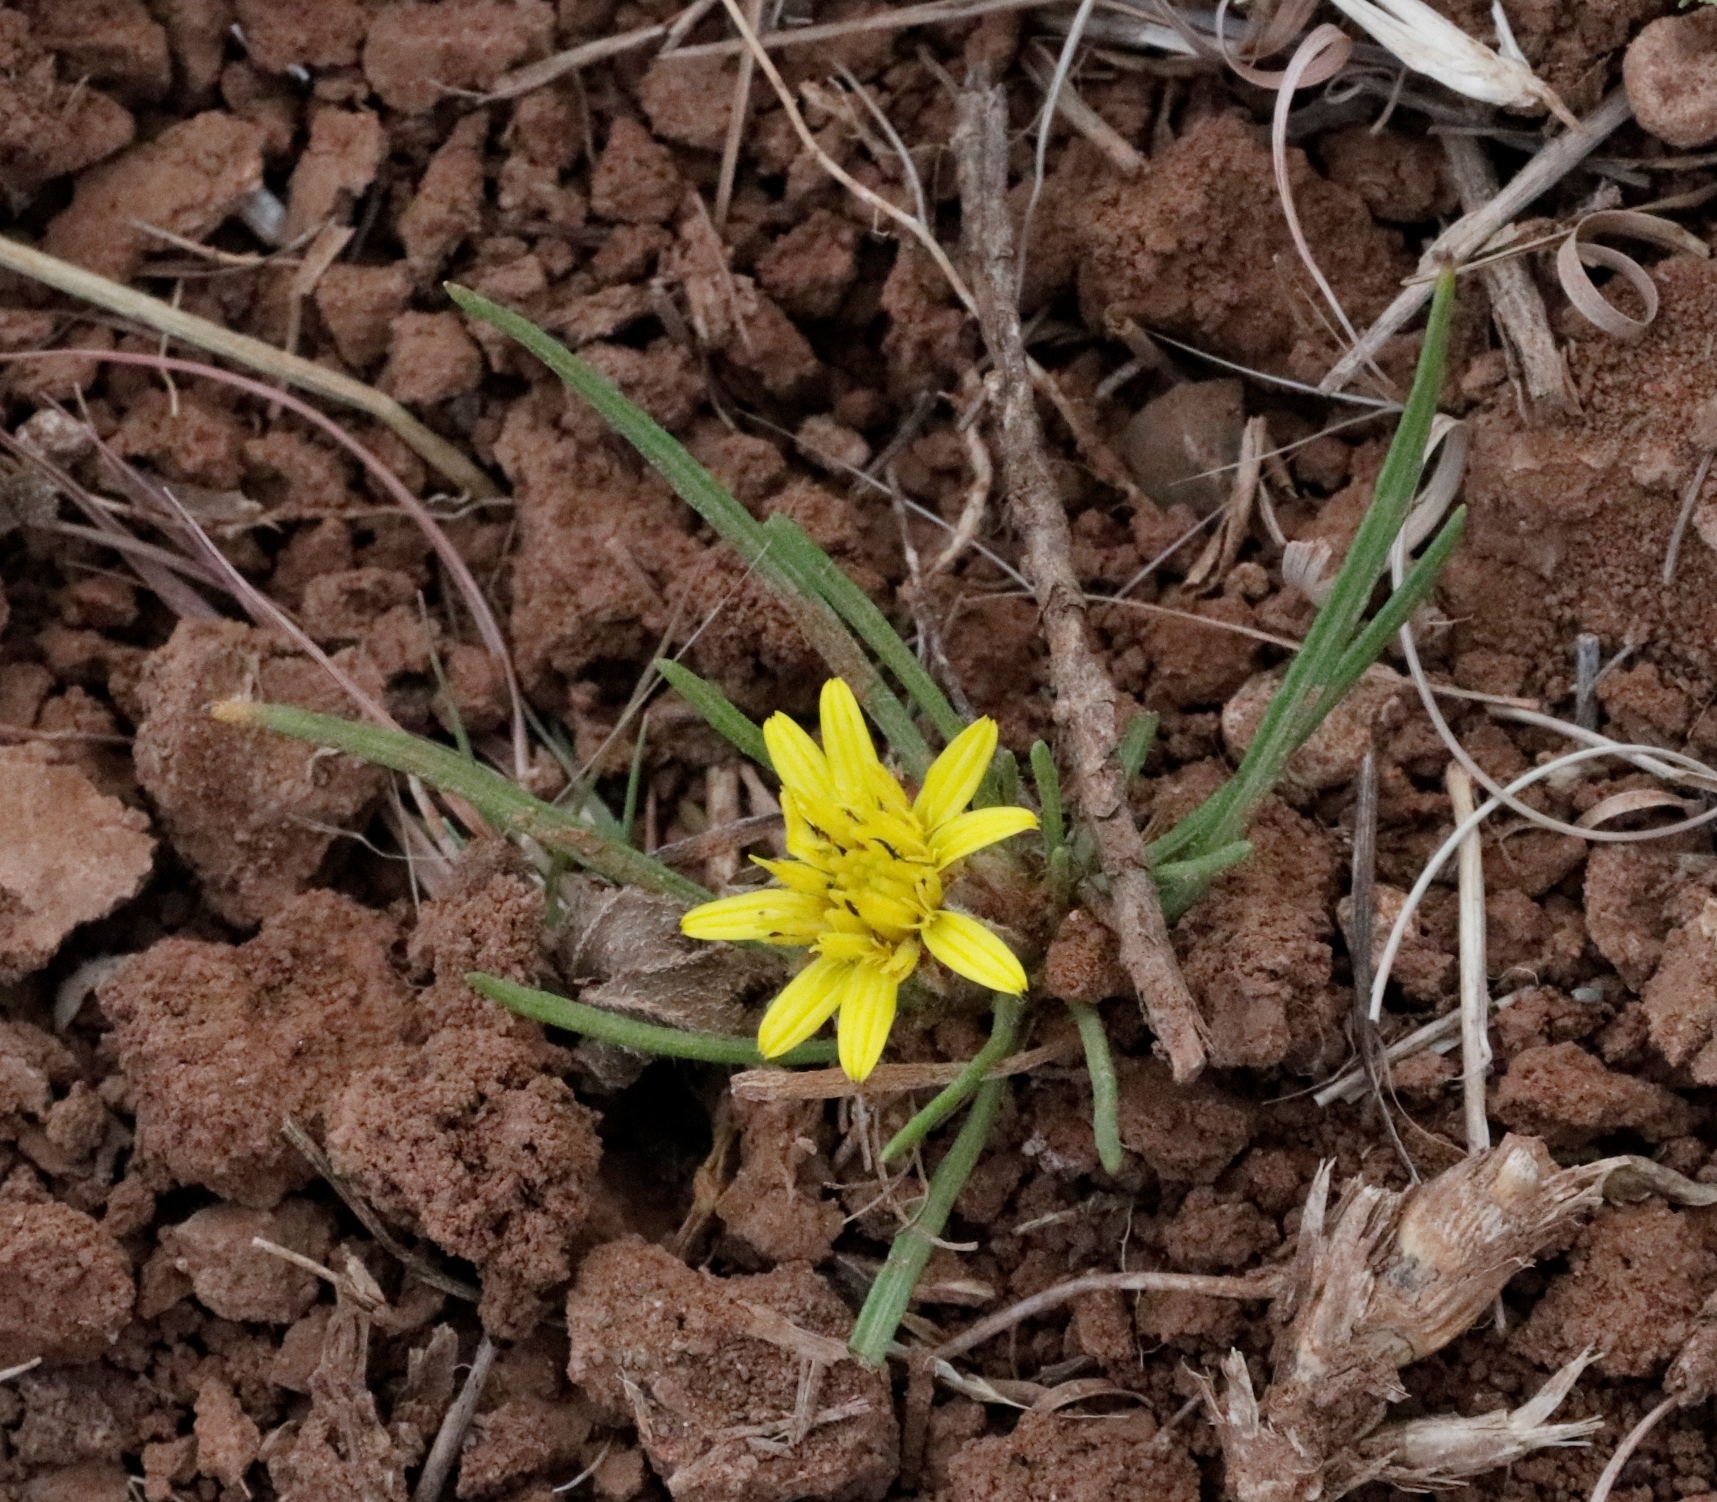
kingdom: Plantae
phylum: Tracheophyta
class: Magnoliopsida
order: Asterales
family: Asteraceae
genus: Geigeria
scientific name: Geigeria ornativa
